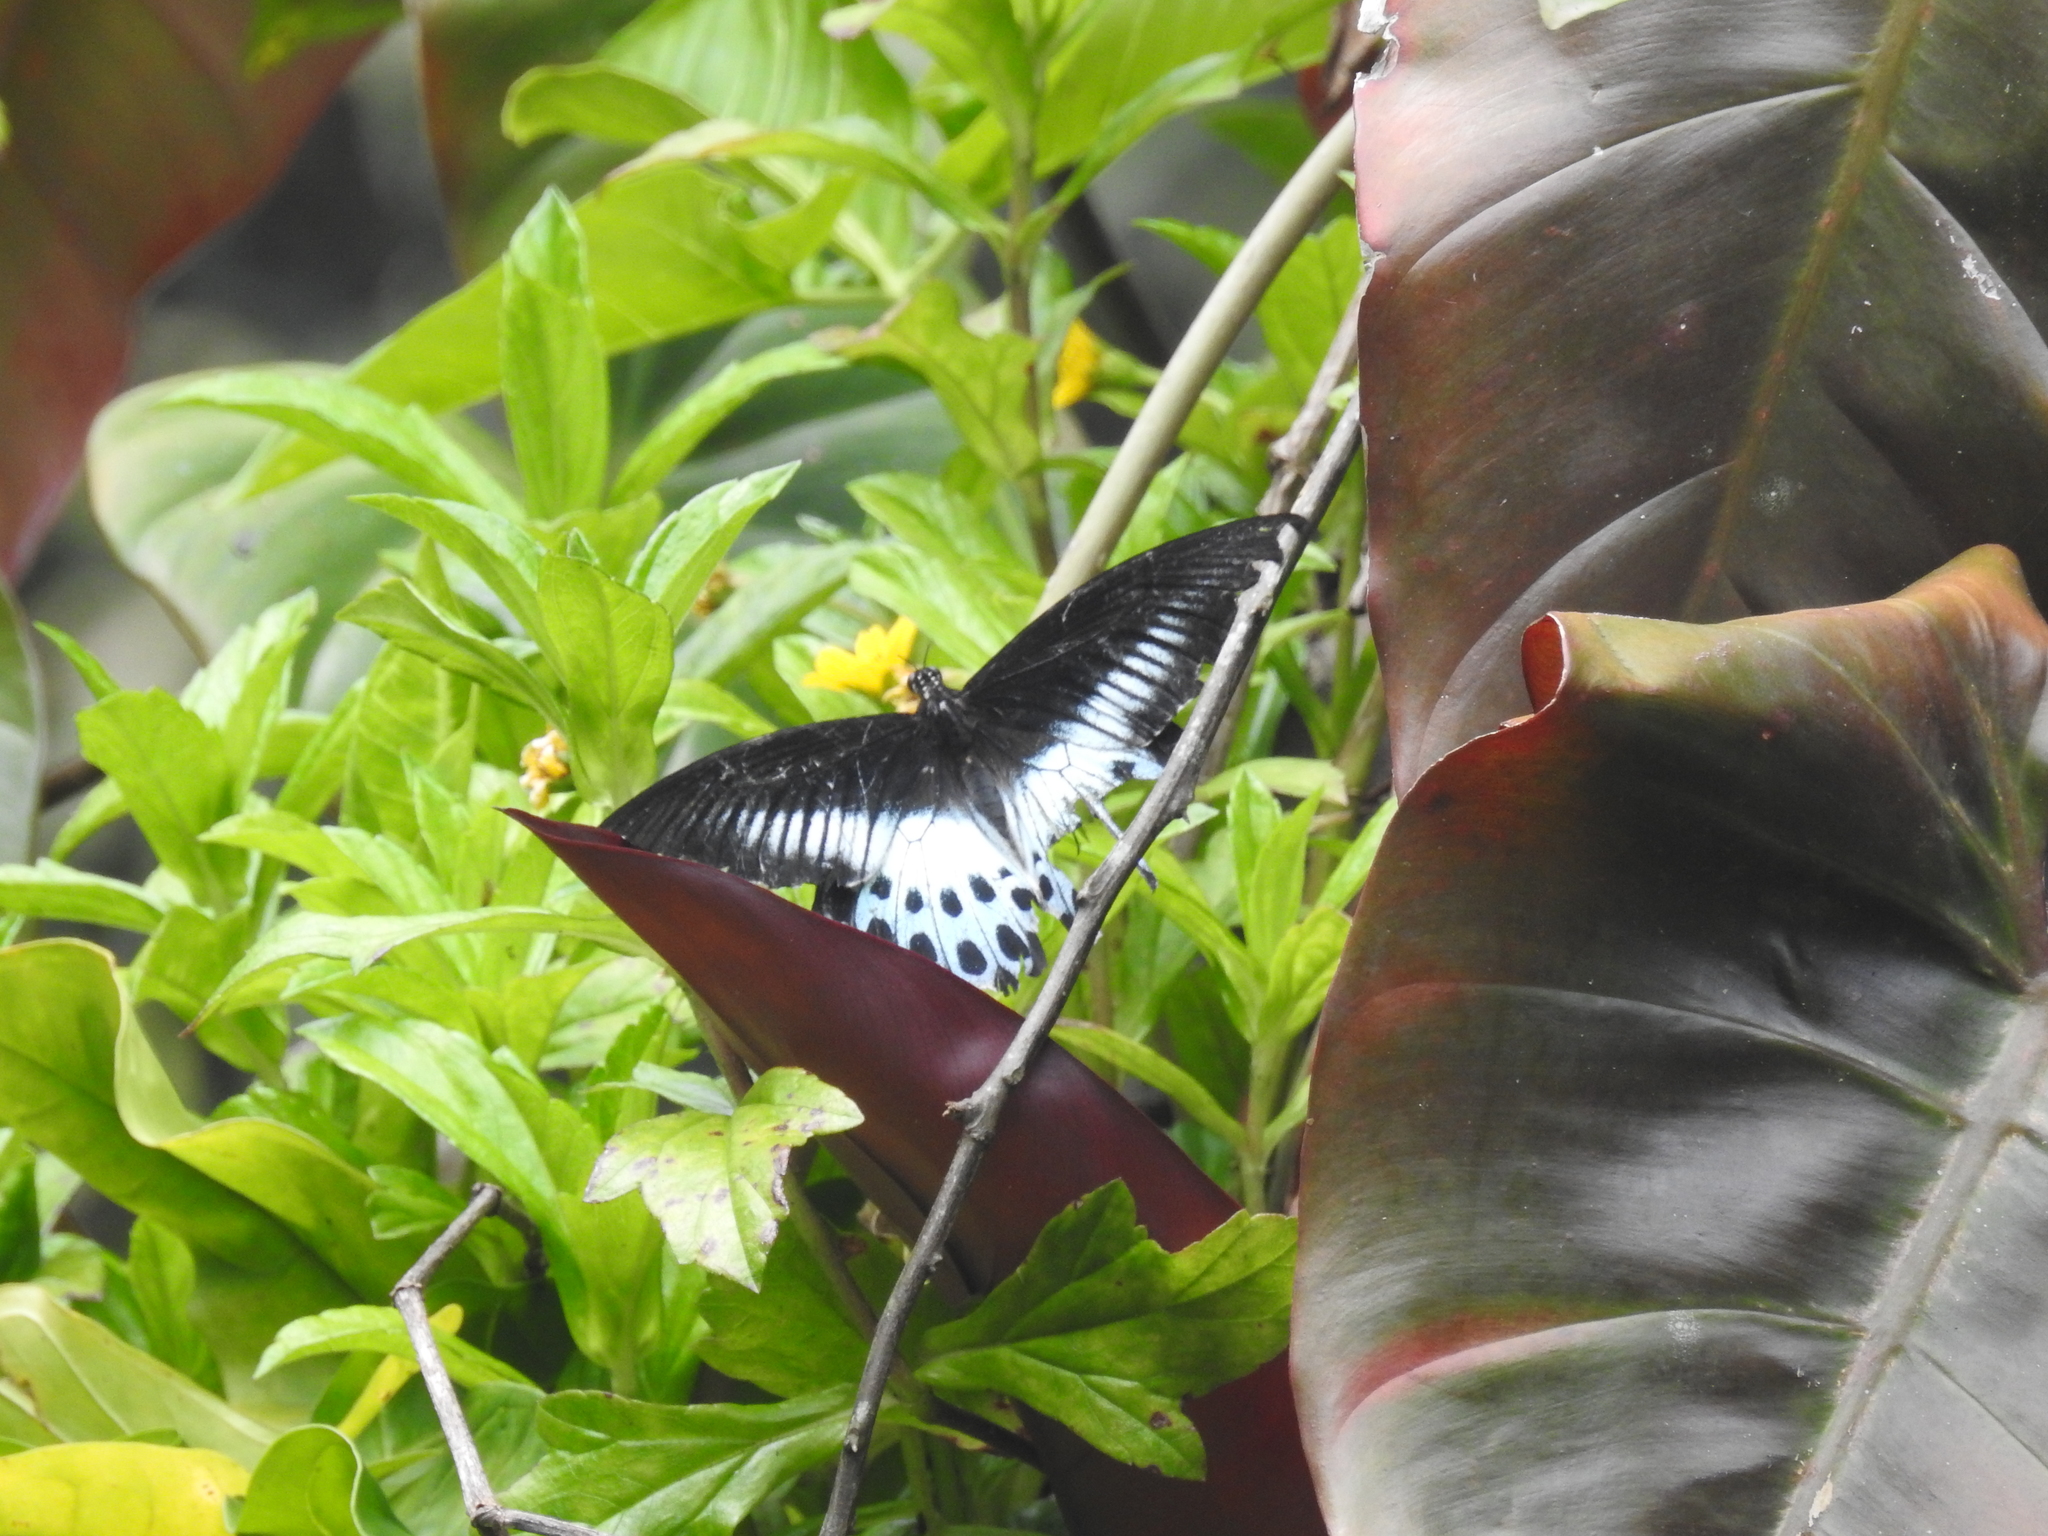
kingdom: Animalia
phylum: Arthropoda
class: Insecta
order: Lepidoptera
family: Papilionidae
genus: Papilio
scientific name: Papilio memnon
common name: Great mormon
